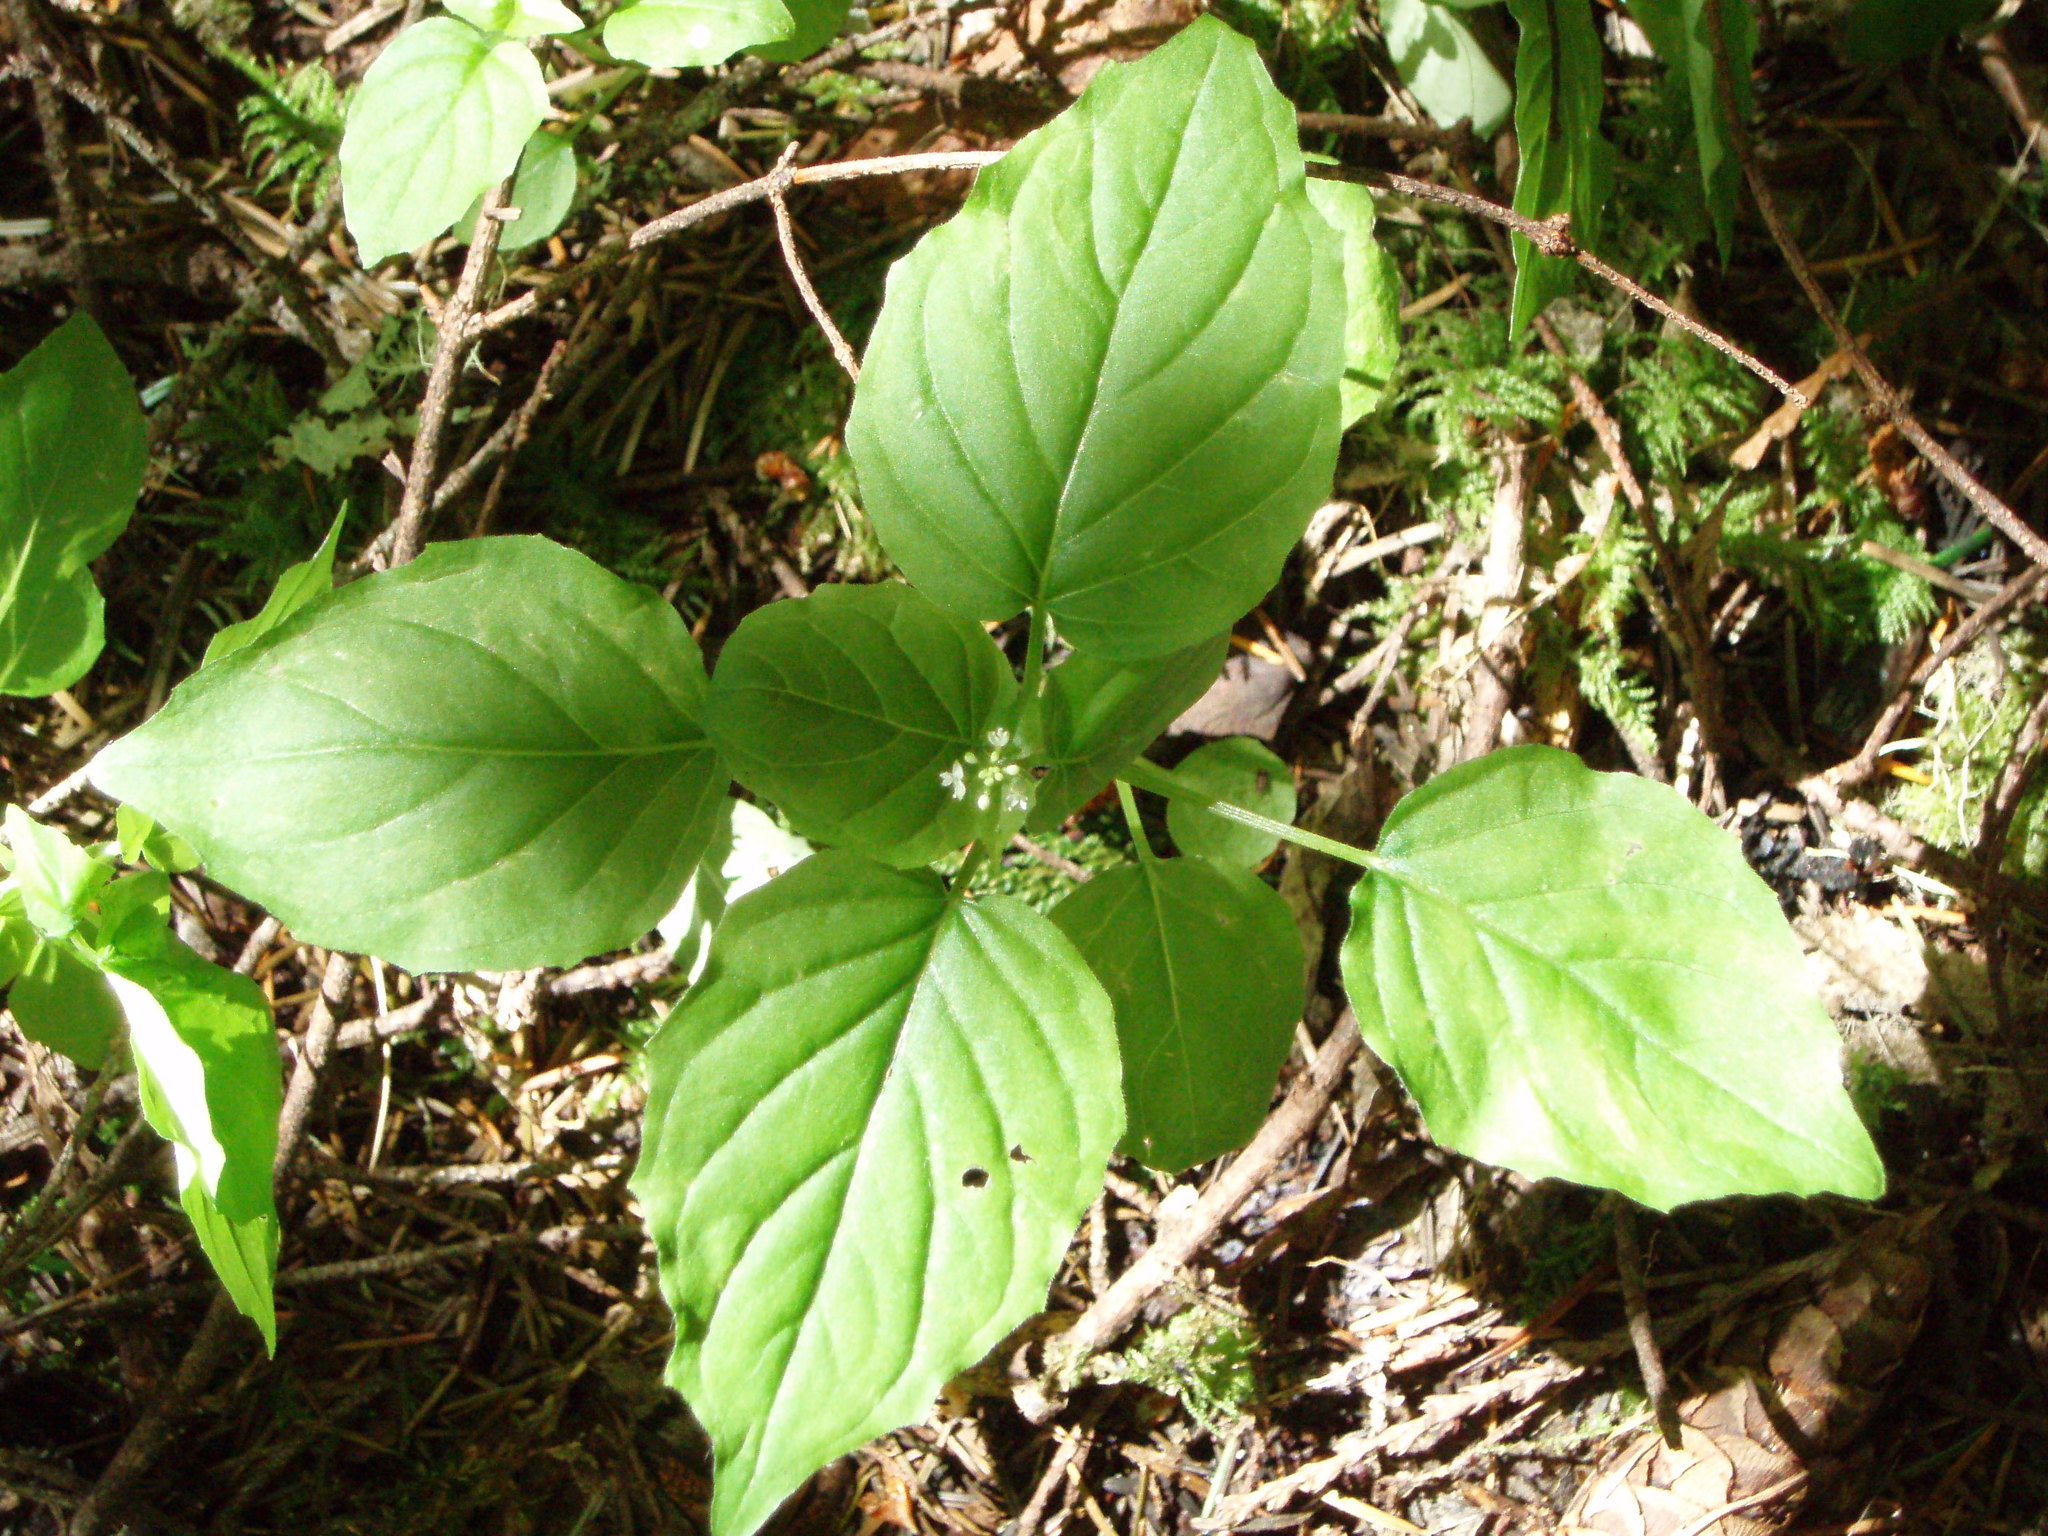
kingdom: Plantae
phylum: Tracheophyta
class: Magnoliopsida
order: Myrtales
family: Onagraceae
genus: Circaea
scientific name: Circaea alpina
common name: Alpine enchanter's-nightshade
